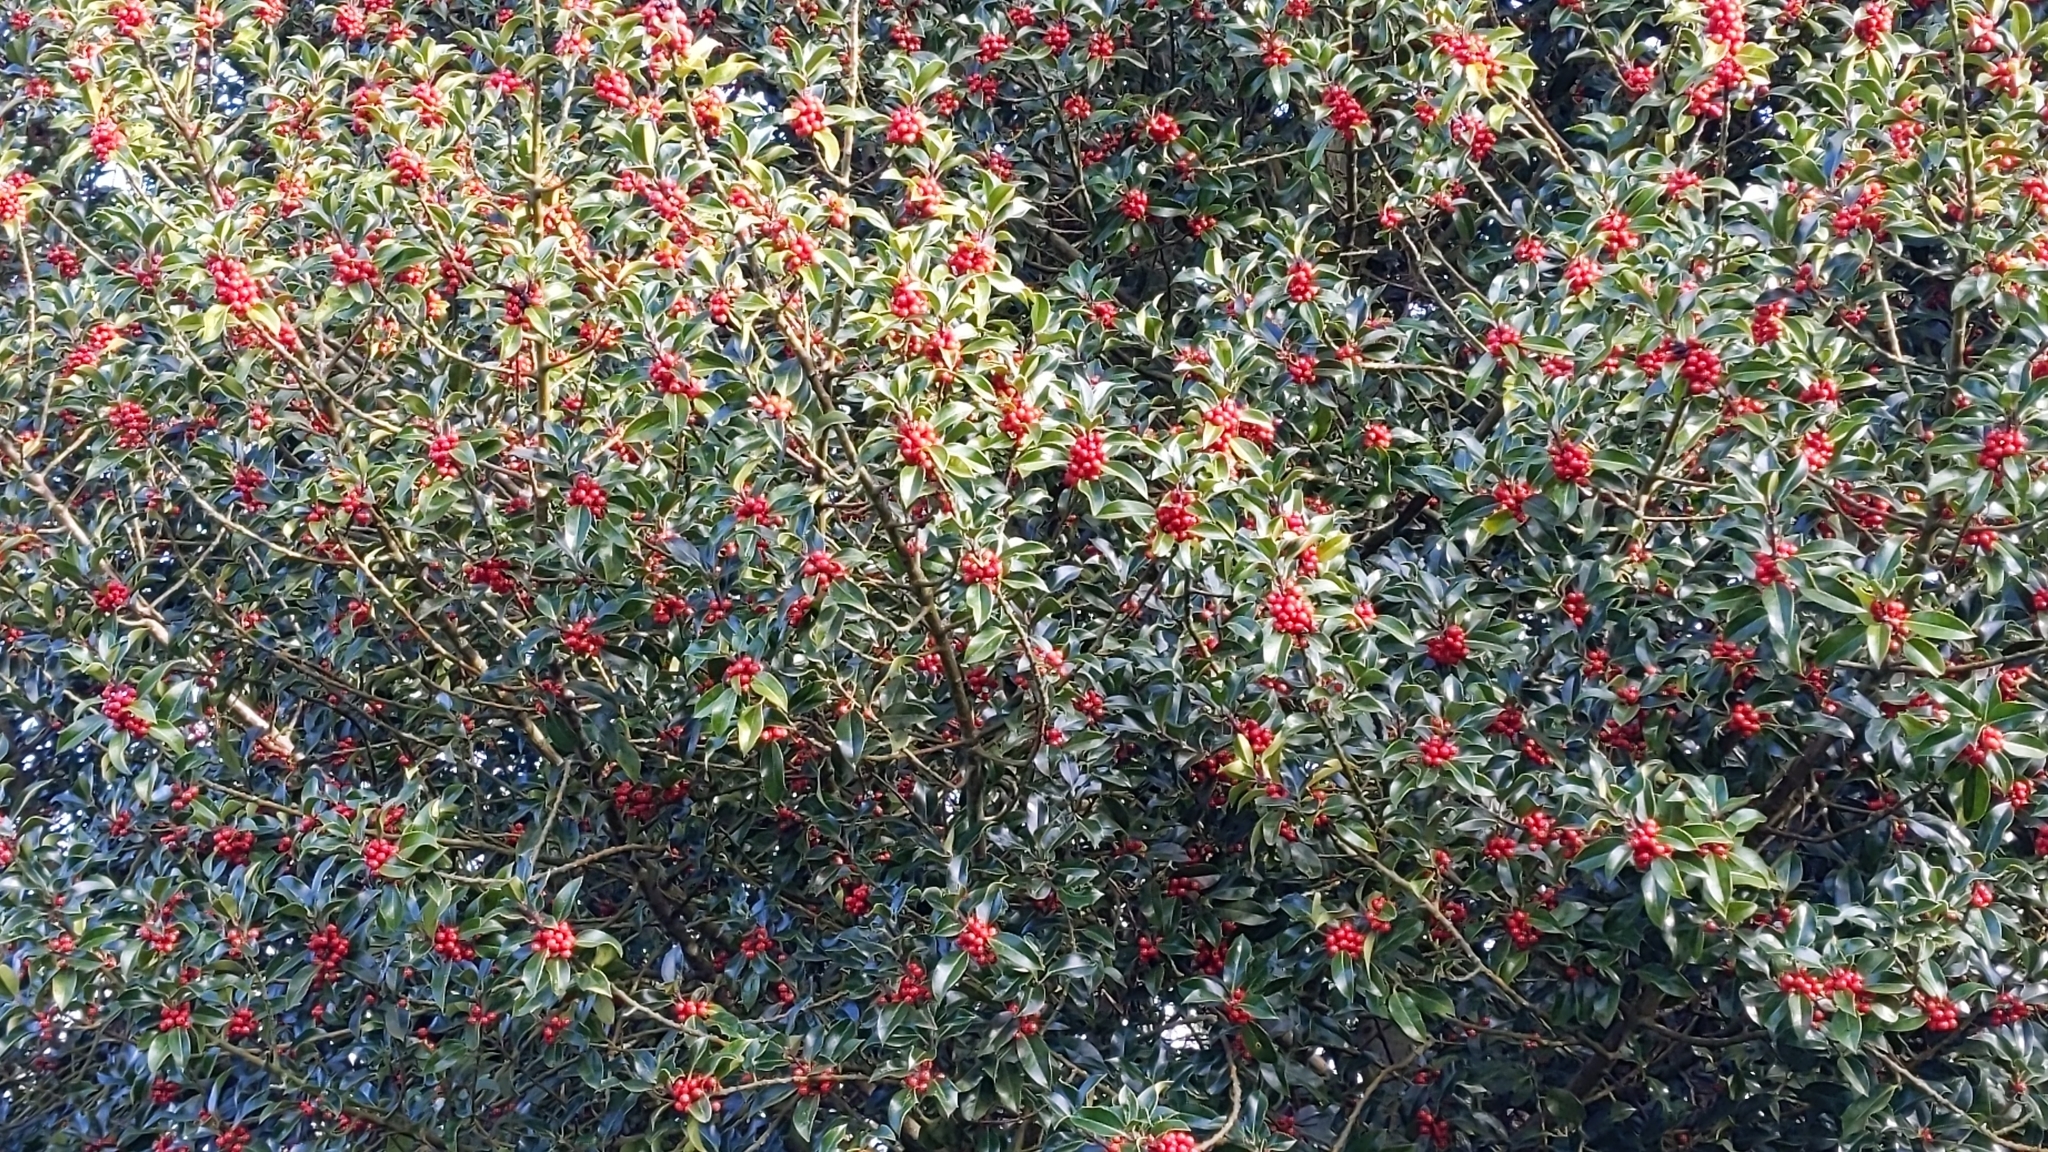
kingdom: Plantae
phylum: Tracheophyta
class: Magnoliopsida
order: Aquifoliales
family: Aquifoliaceae
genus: Ilex
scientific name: Ilex aquifolium
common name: English holly
